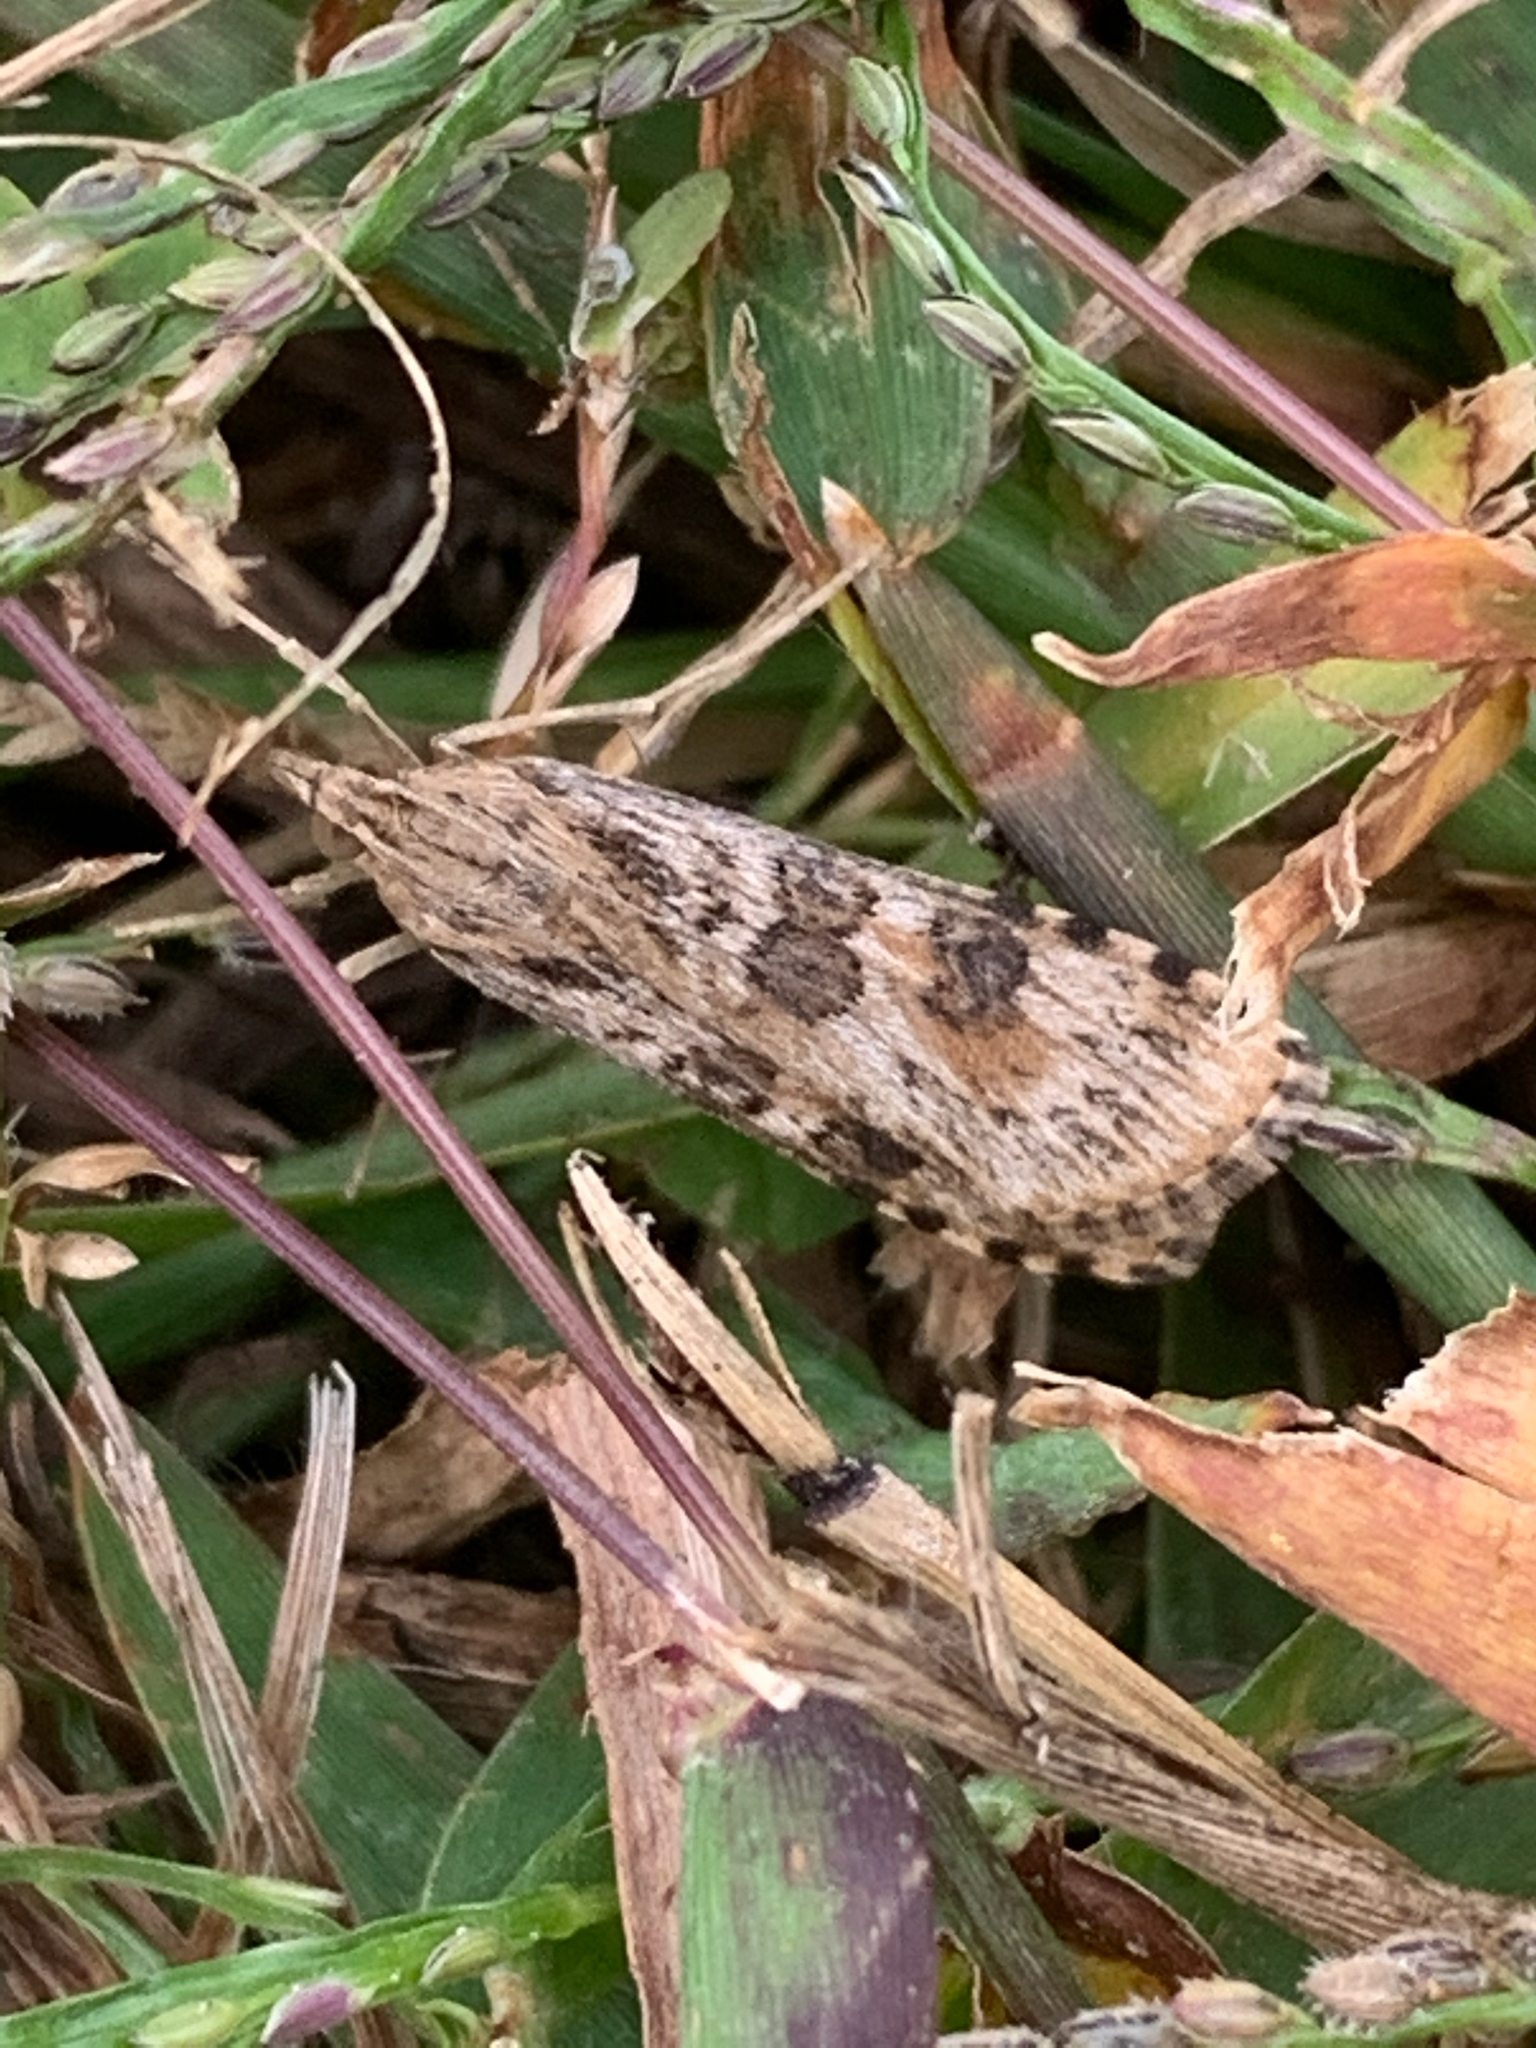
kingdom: Animalia
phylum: Arthropoda
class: Insecta
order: Lepidoptera
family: Crambidae
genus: Nomophila
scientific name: Nomophila nearctica
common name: American rush veneer
